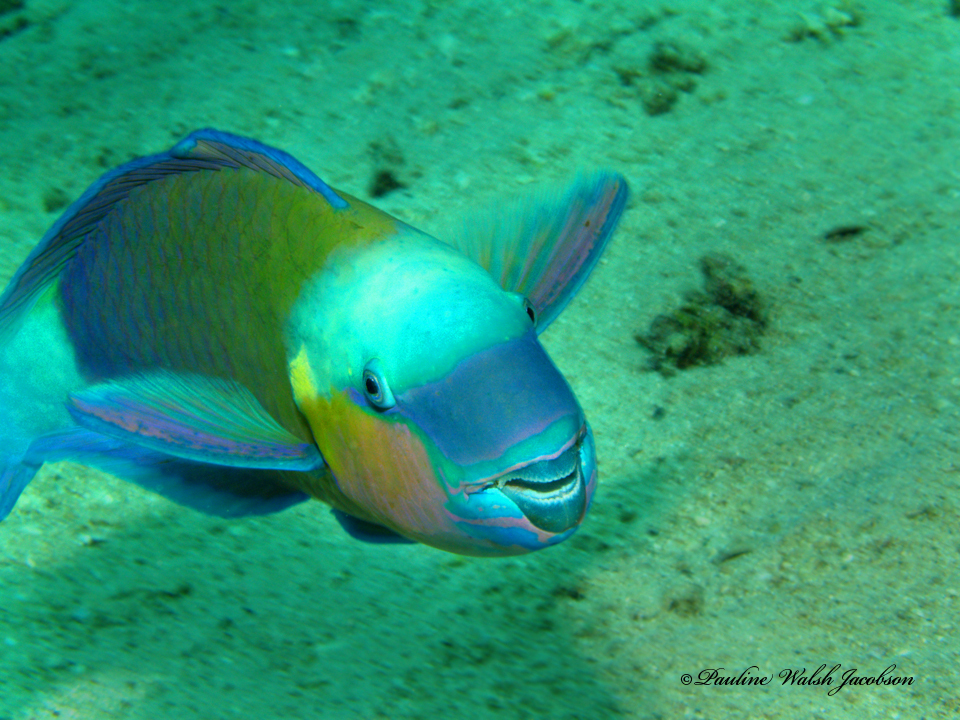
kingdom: Animalia
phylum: Chordata
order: Perciformes
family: Scaridae
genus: Chlorurus
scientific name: Chlorurus sordidus
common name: Bullethead parrotfish
